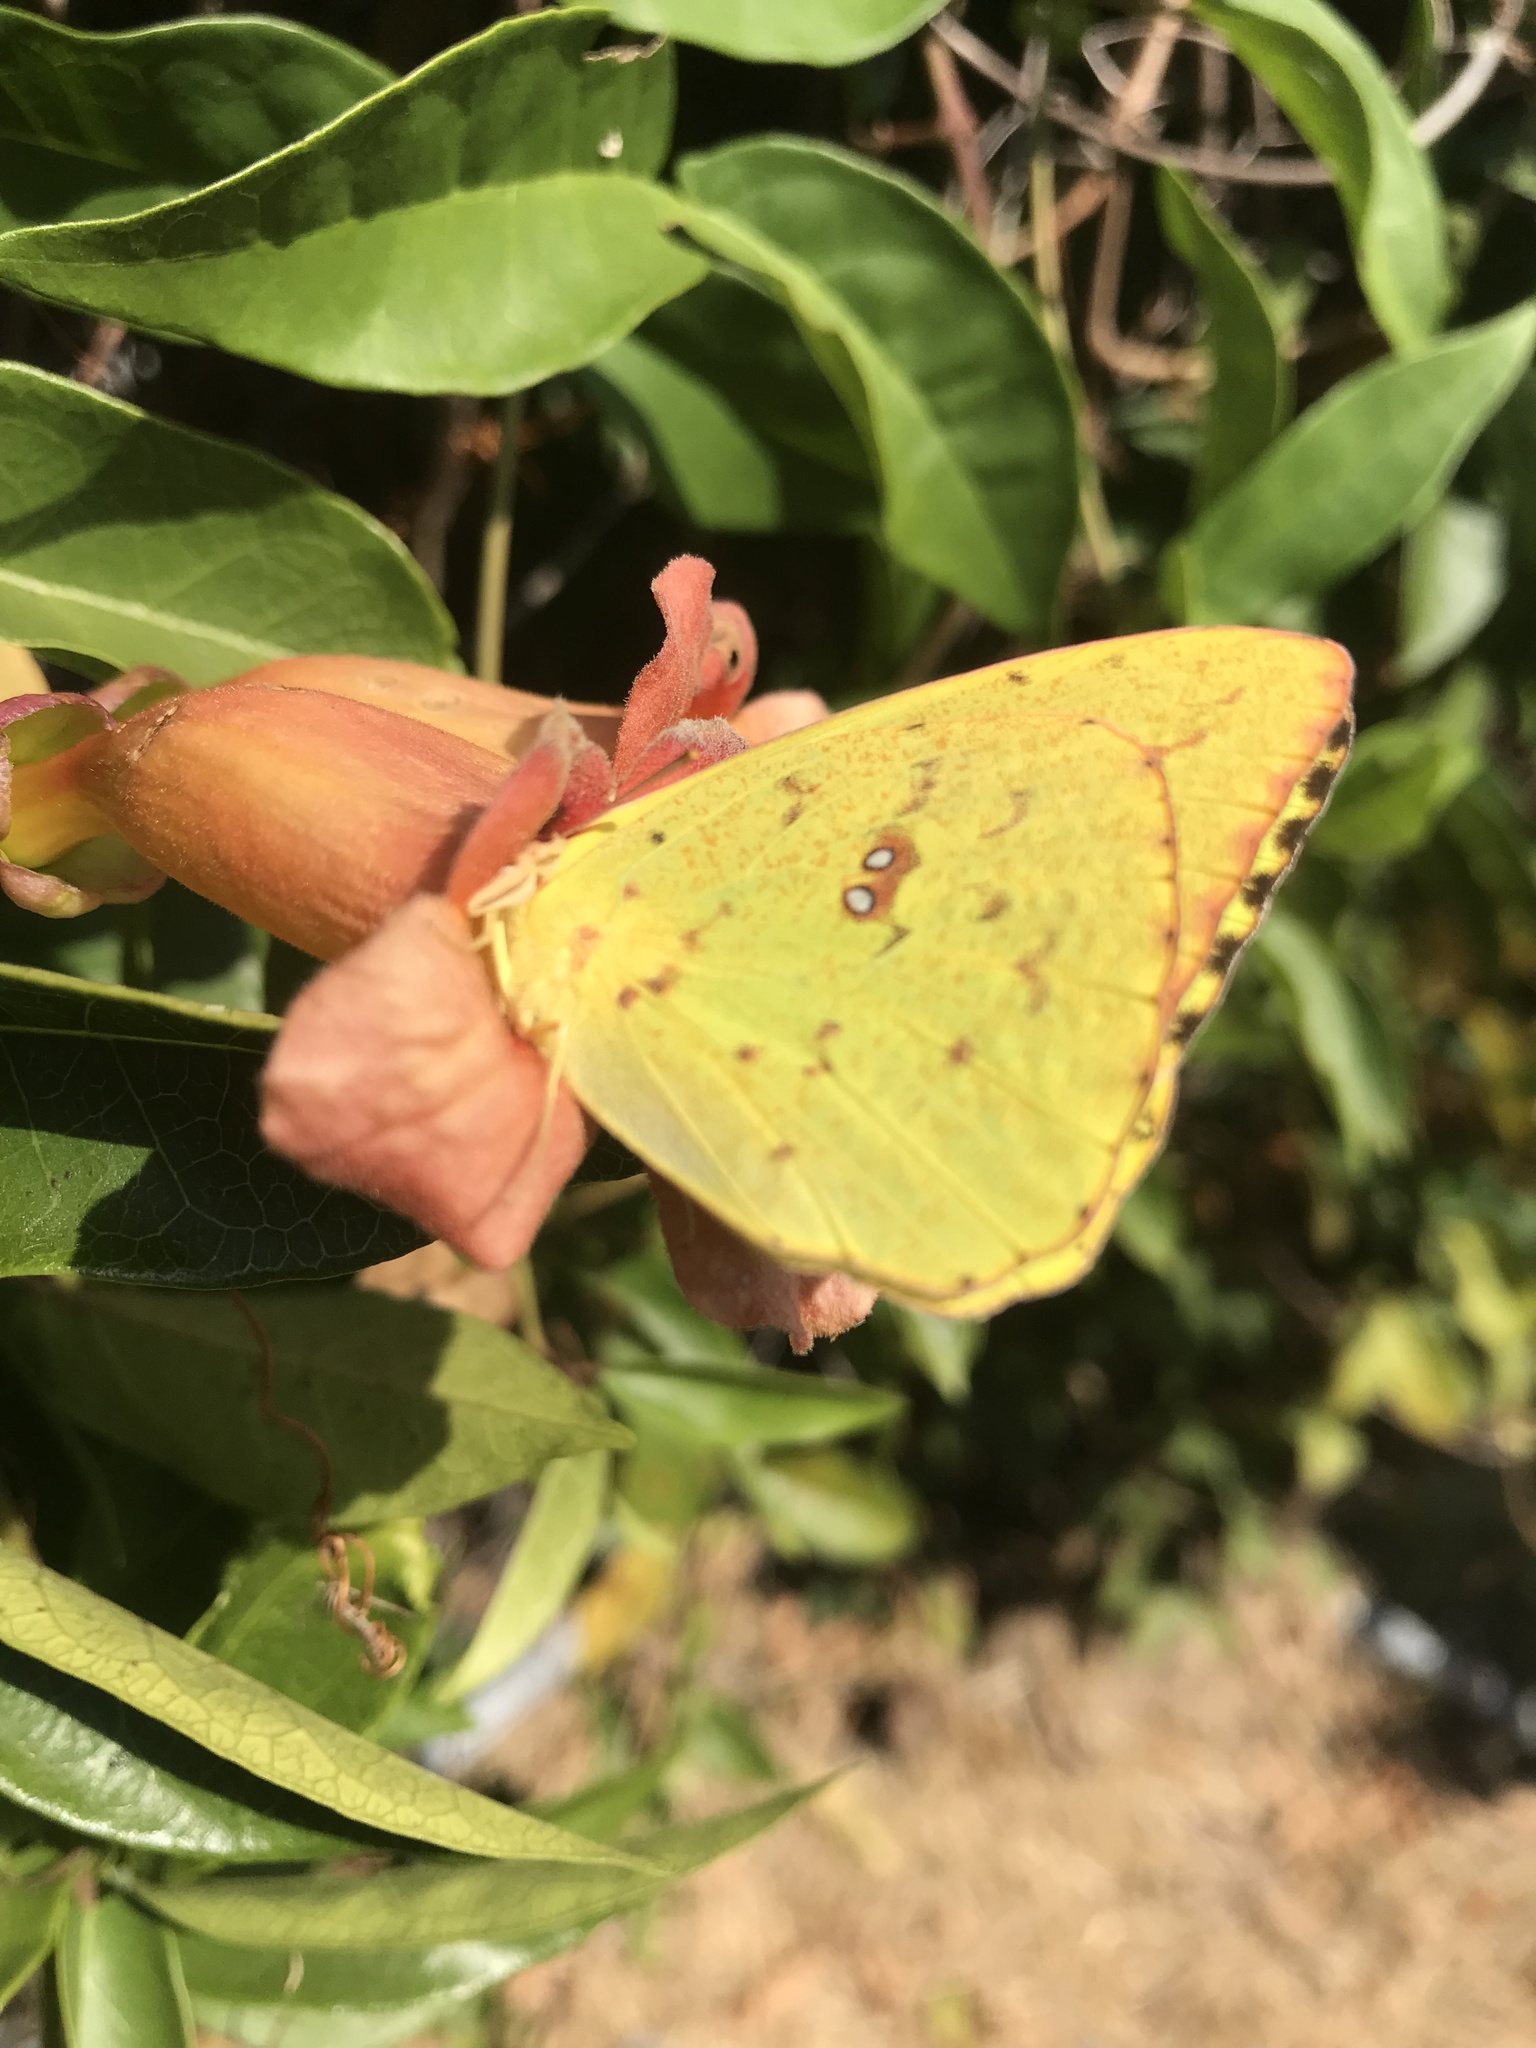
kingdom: Animalia
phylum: Arthropoda
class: Insecta
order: Lepidoptera
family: Pieridae
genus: Phoebis
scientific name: Phoebis sennae
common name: Cloudless sulphur
